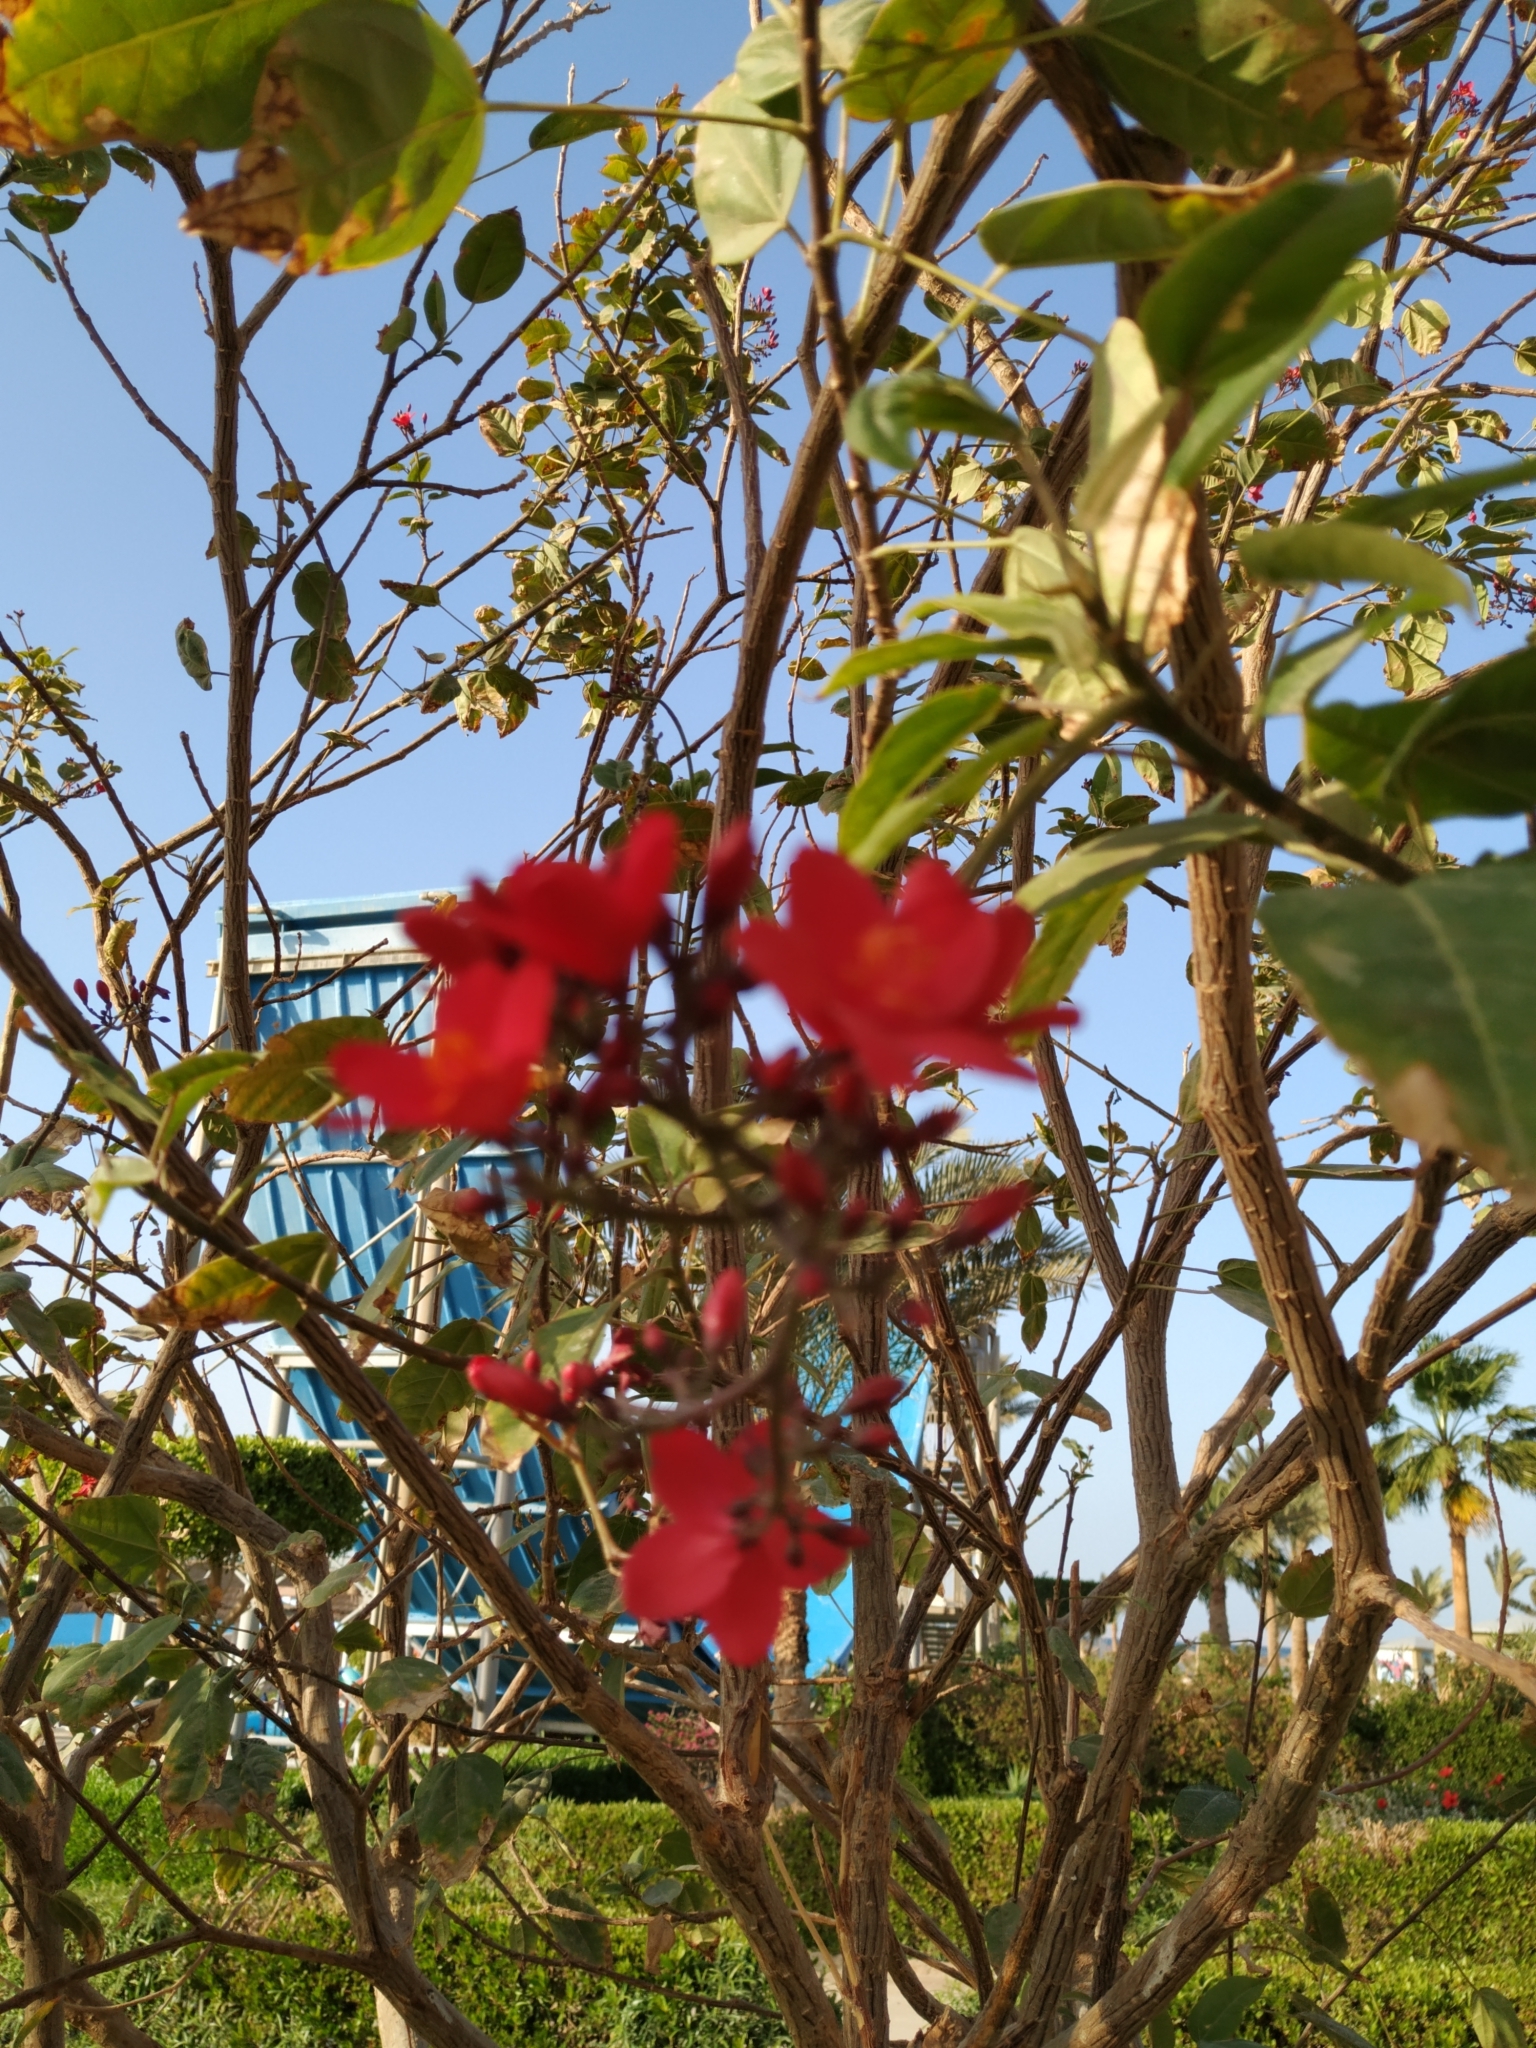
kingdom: Plantae
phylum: Tracheophyta
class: Magnoliopsida
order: Malpighiales
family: Euphorbiaceae
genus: Jatropha
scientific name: Jatropha integerrima
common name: Peregrina
